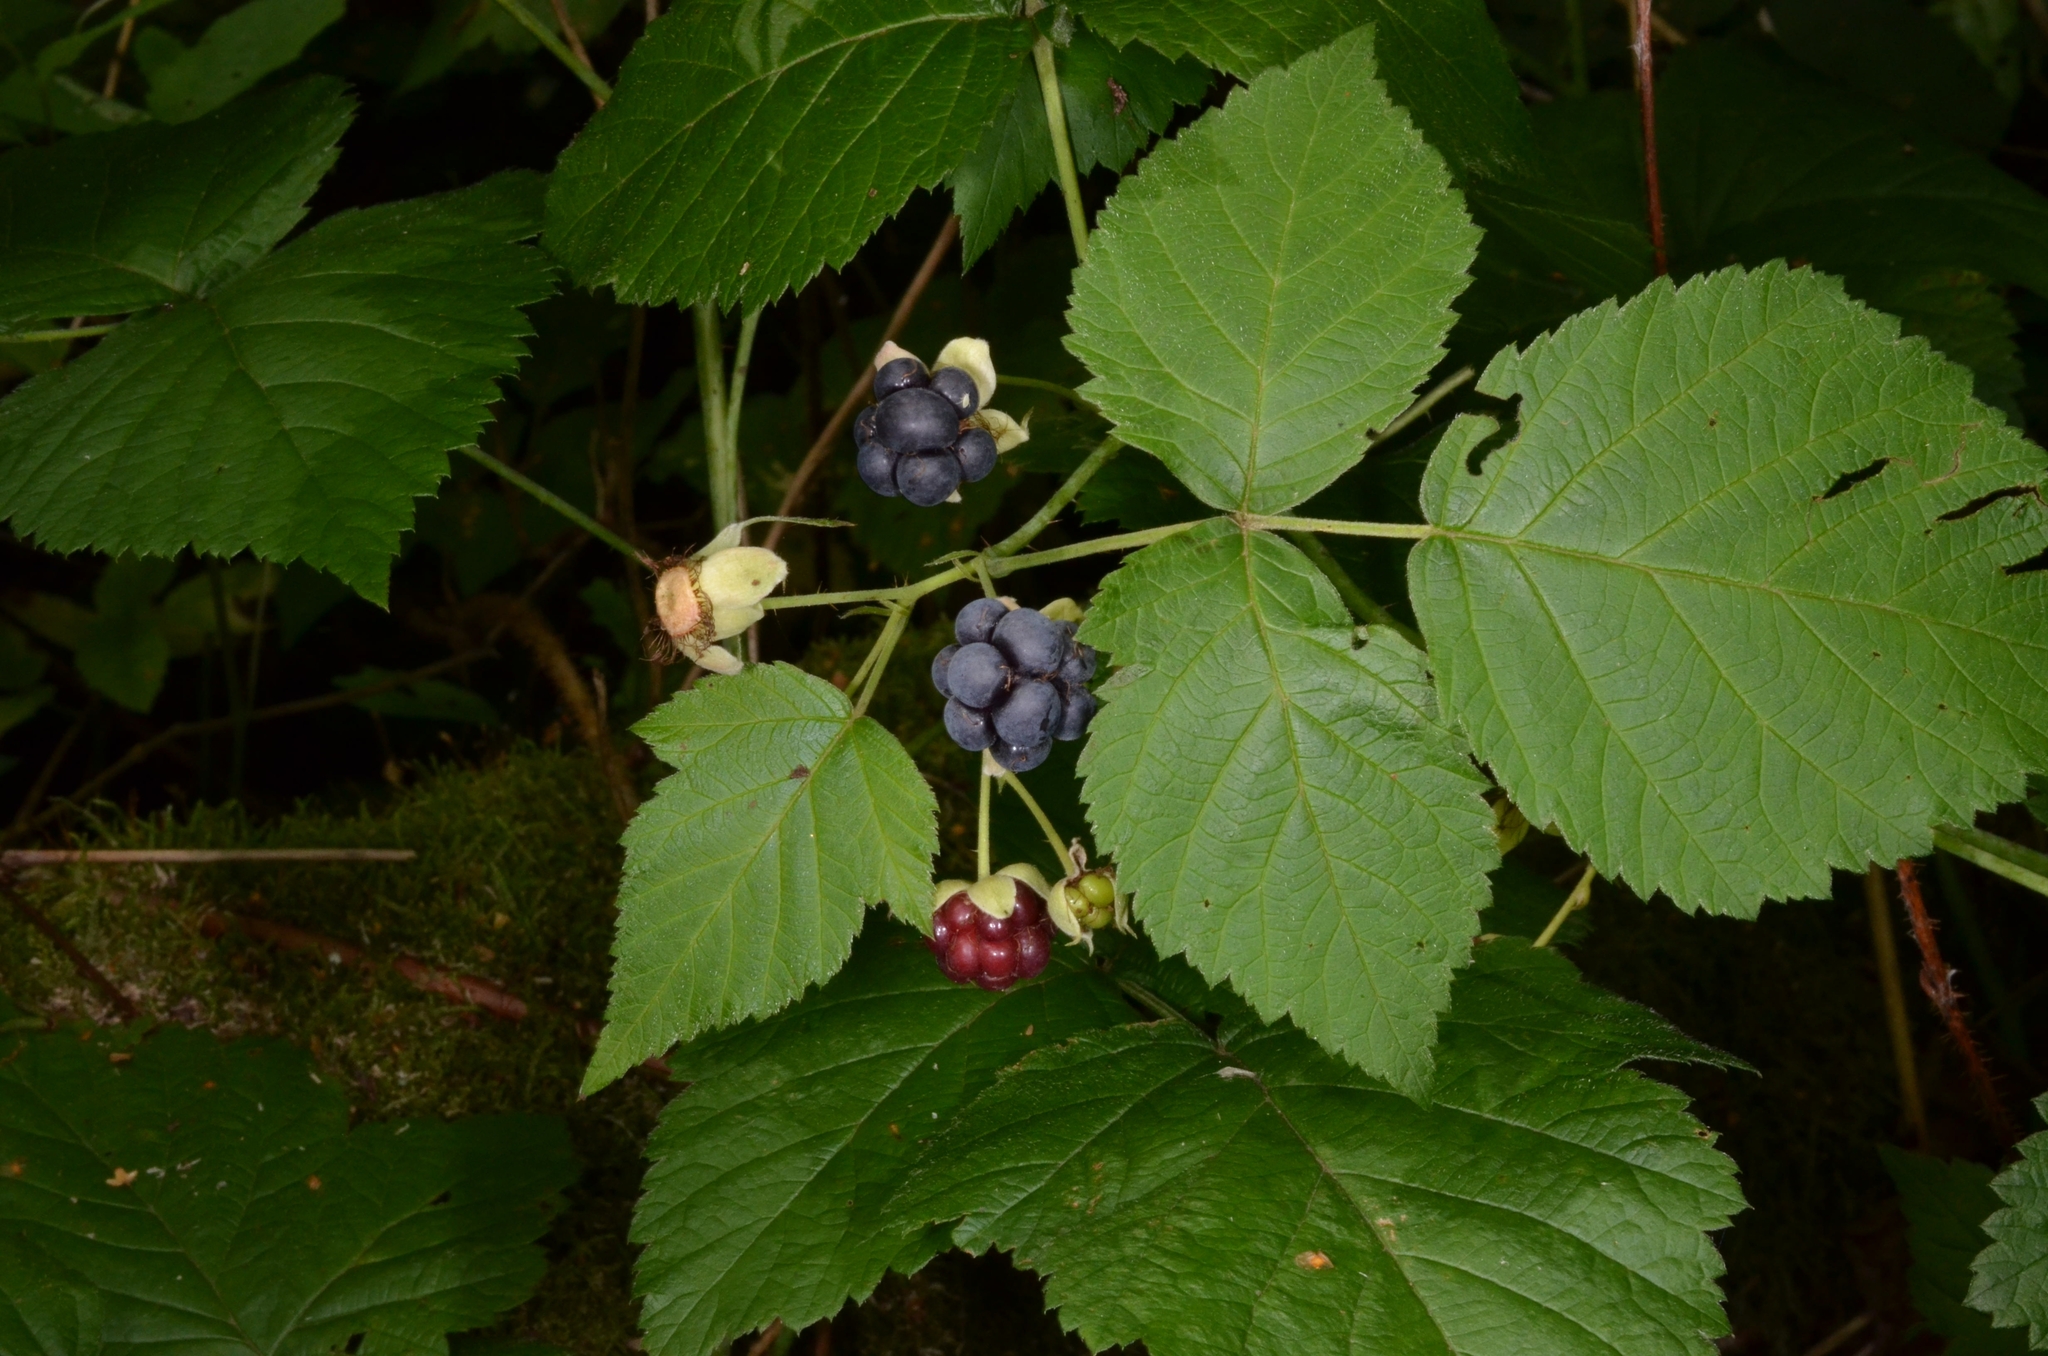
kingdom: Plantae
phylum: Tracheophyta
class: Magnoliopsida
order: Rosales
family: Rosaceae
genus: Rubus
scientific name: Rubus caesius
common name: Dewberry
